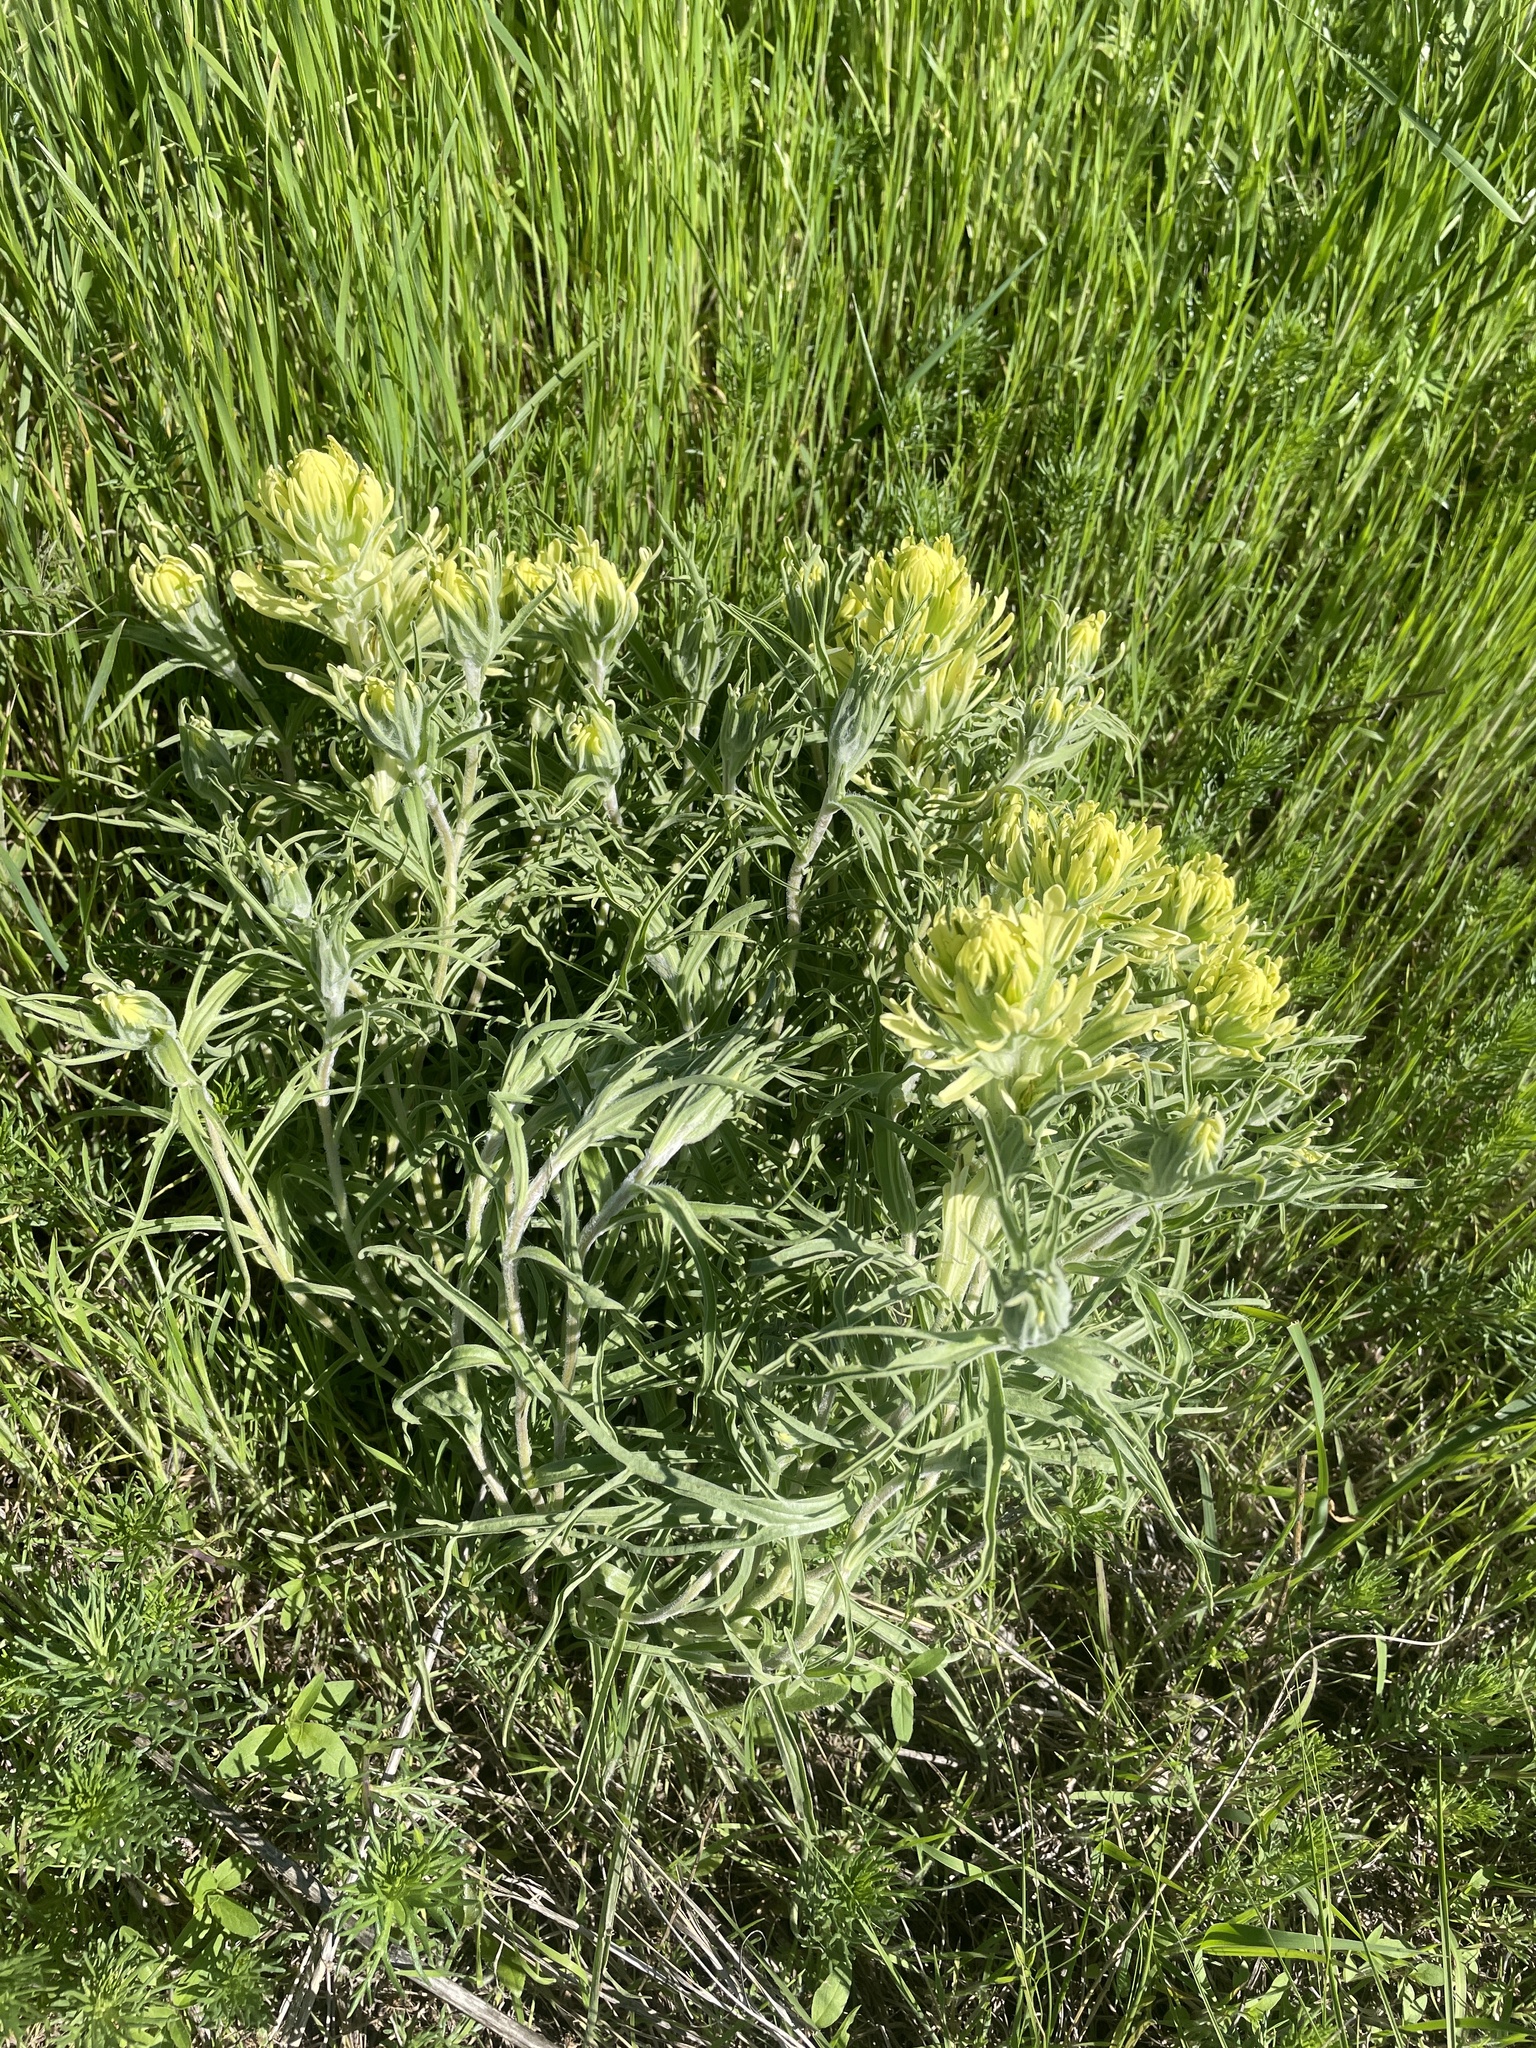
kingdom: Plantae
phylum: Tracheophyta
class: Magnoliopsida
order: Lamiales
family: Orobanchaceae
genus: Castilleja
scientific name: Castilleja citrina
